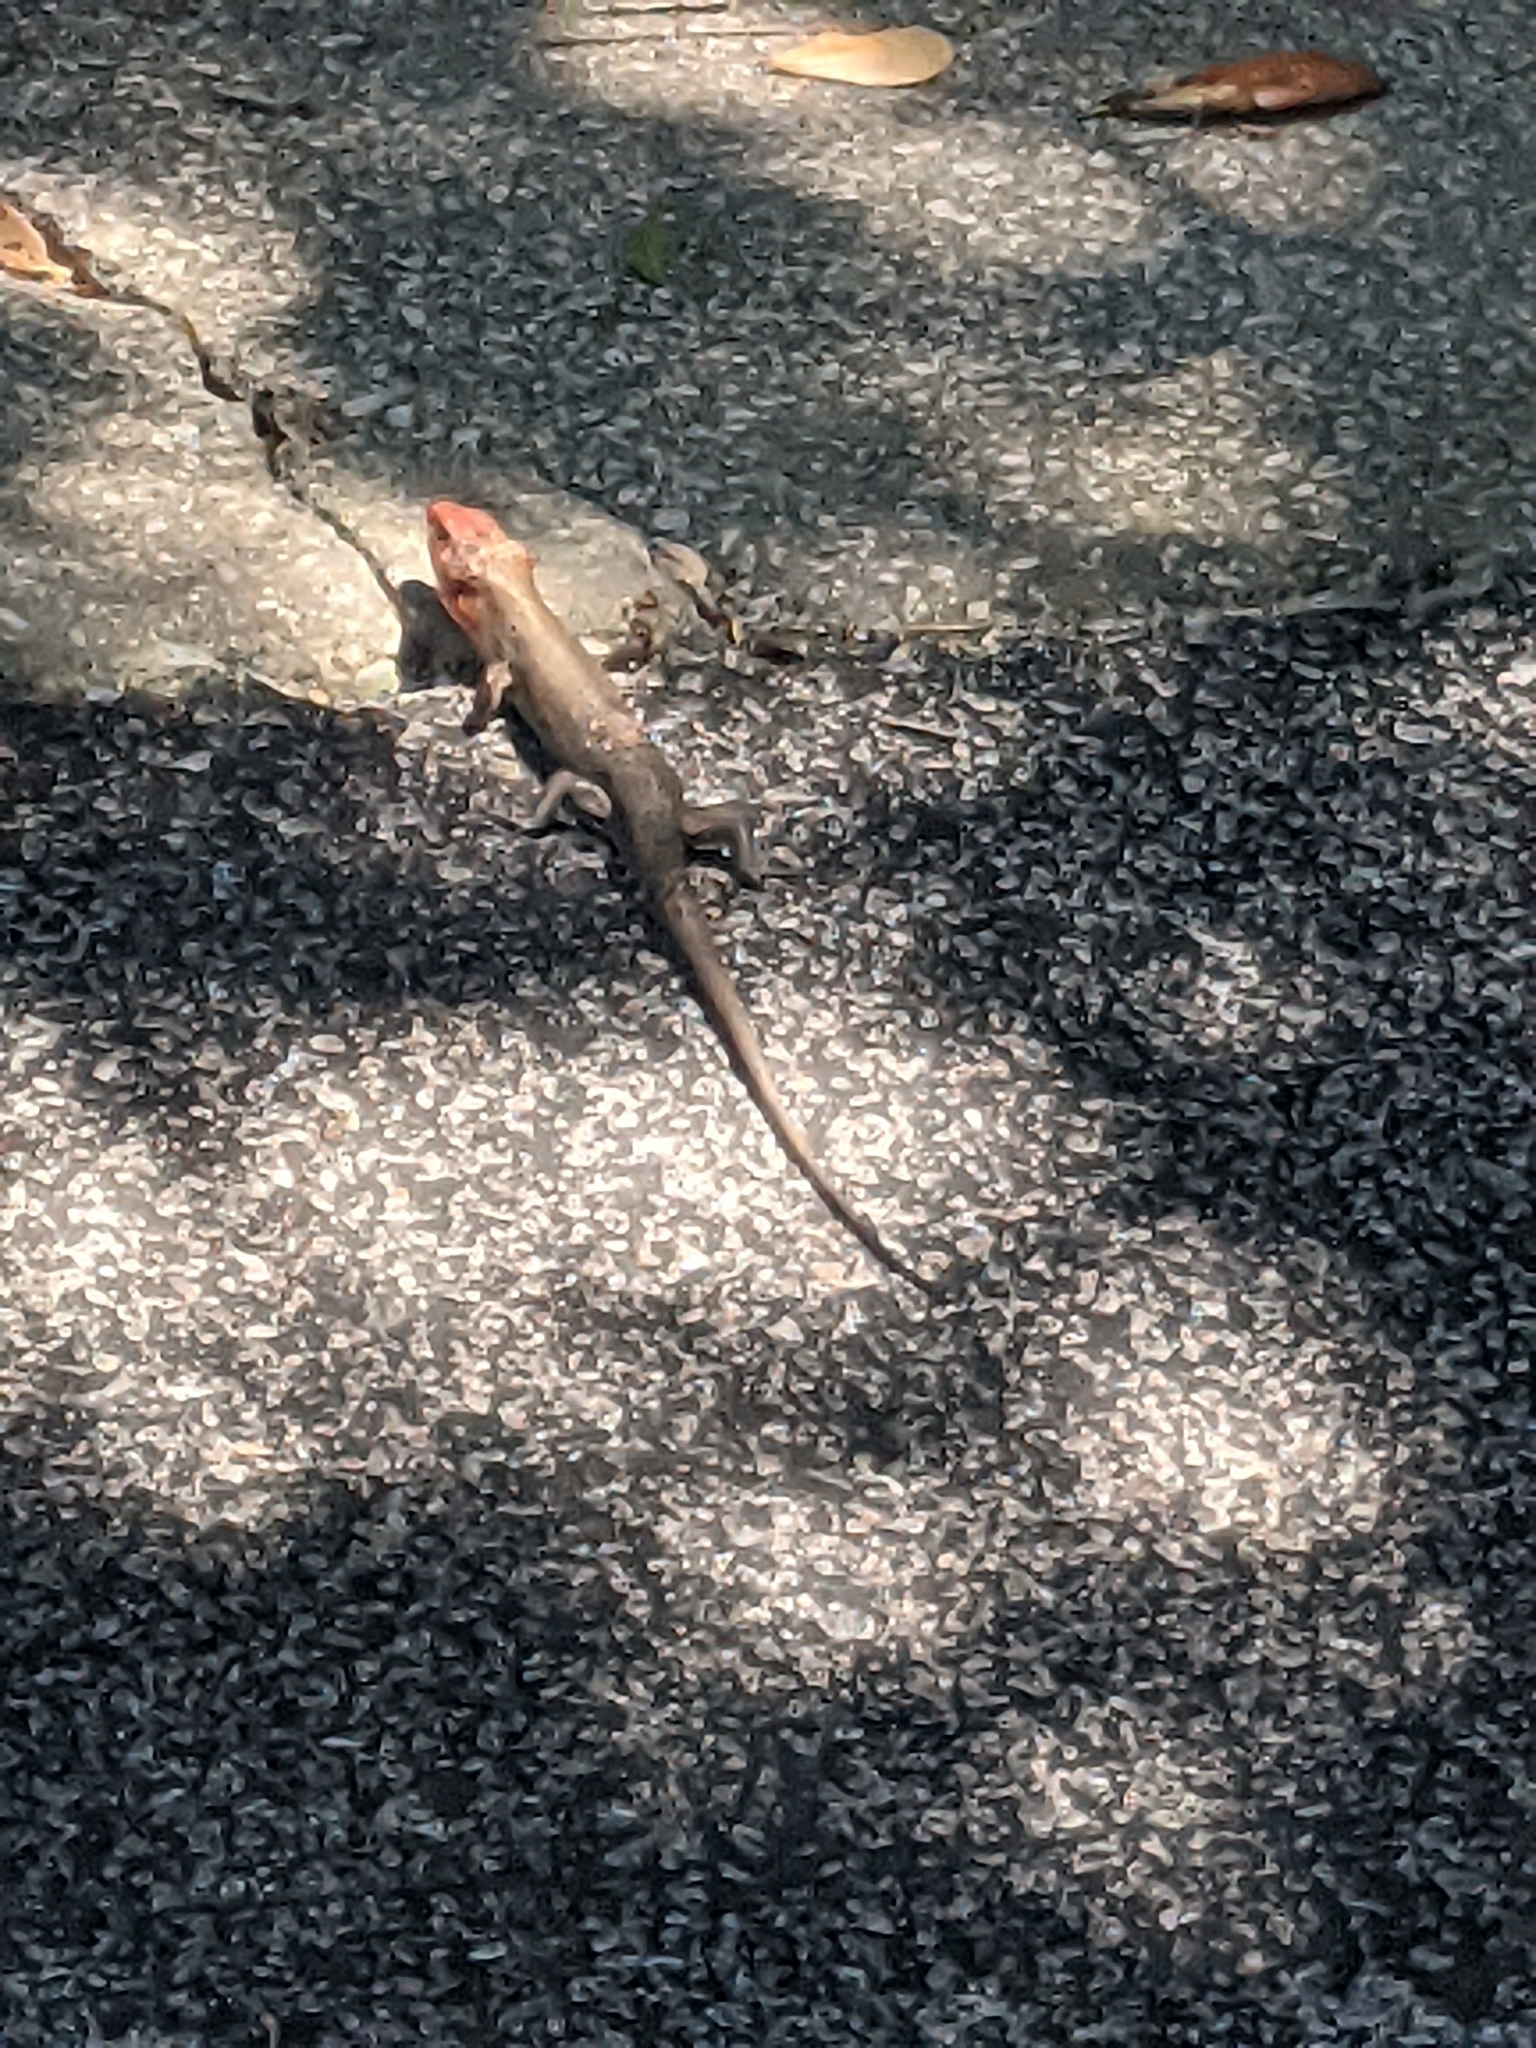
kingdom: Animalia
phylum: Chordata
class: Squamata
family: Scincidae
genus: Plestiodon
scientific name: Plestiodon laticeps
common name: Broadhead skink
